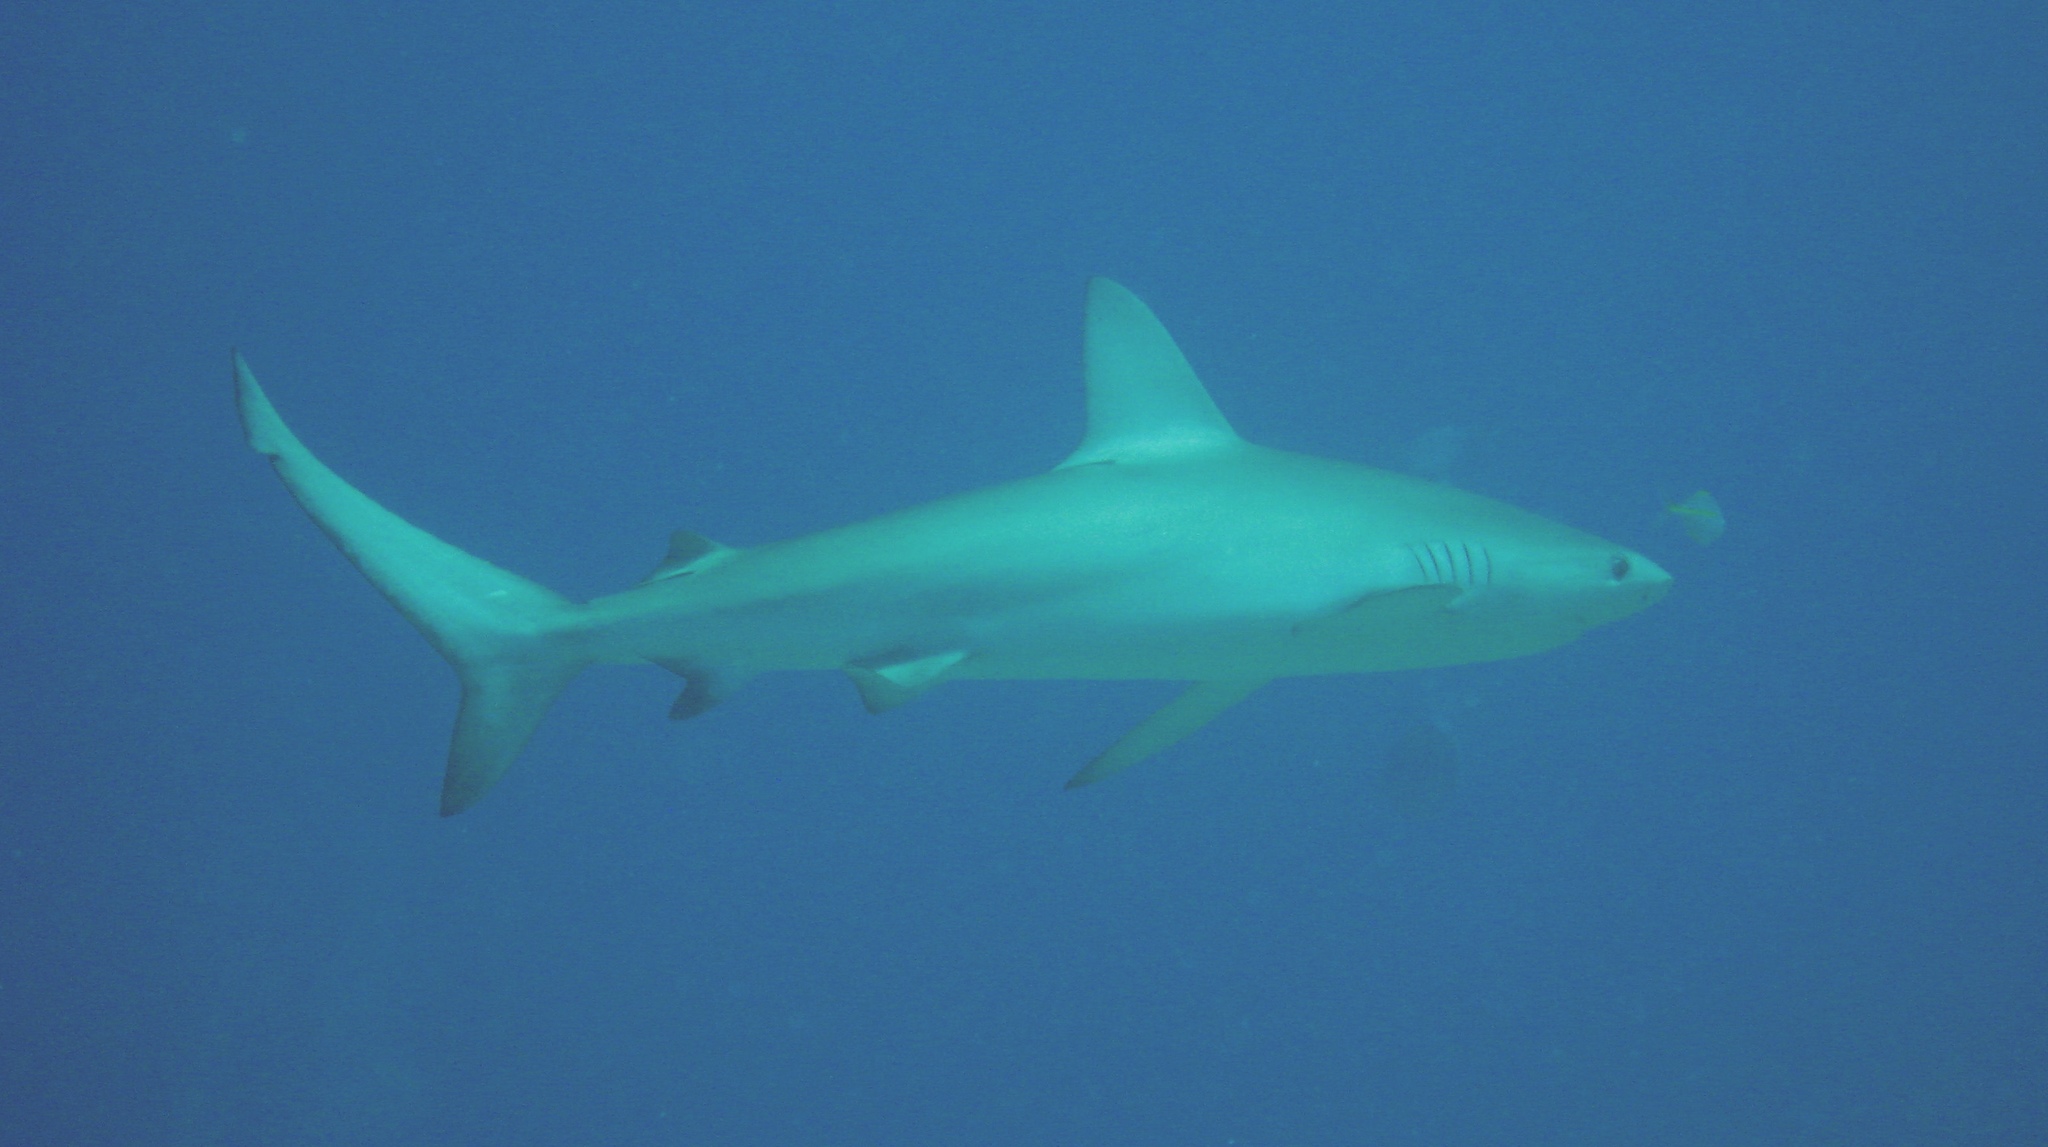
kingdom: Animalia
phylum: Chordata
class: Elasmobranchii
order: Carcharhiniformes
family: Carcharhinidae
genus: Carcharhinus
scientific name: Carcharhinus galapagensis
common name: Galapagos shark
